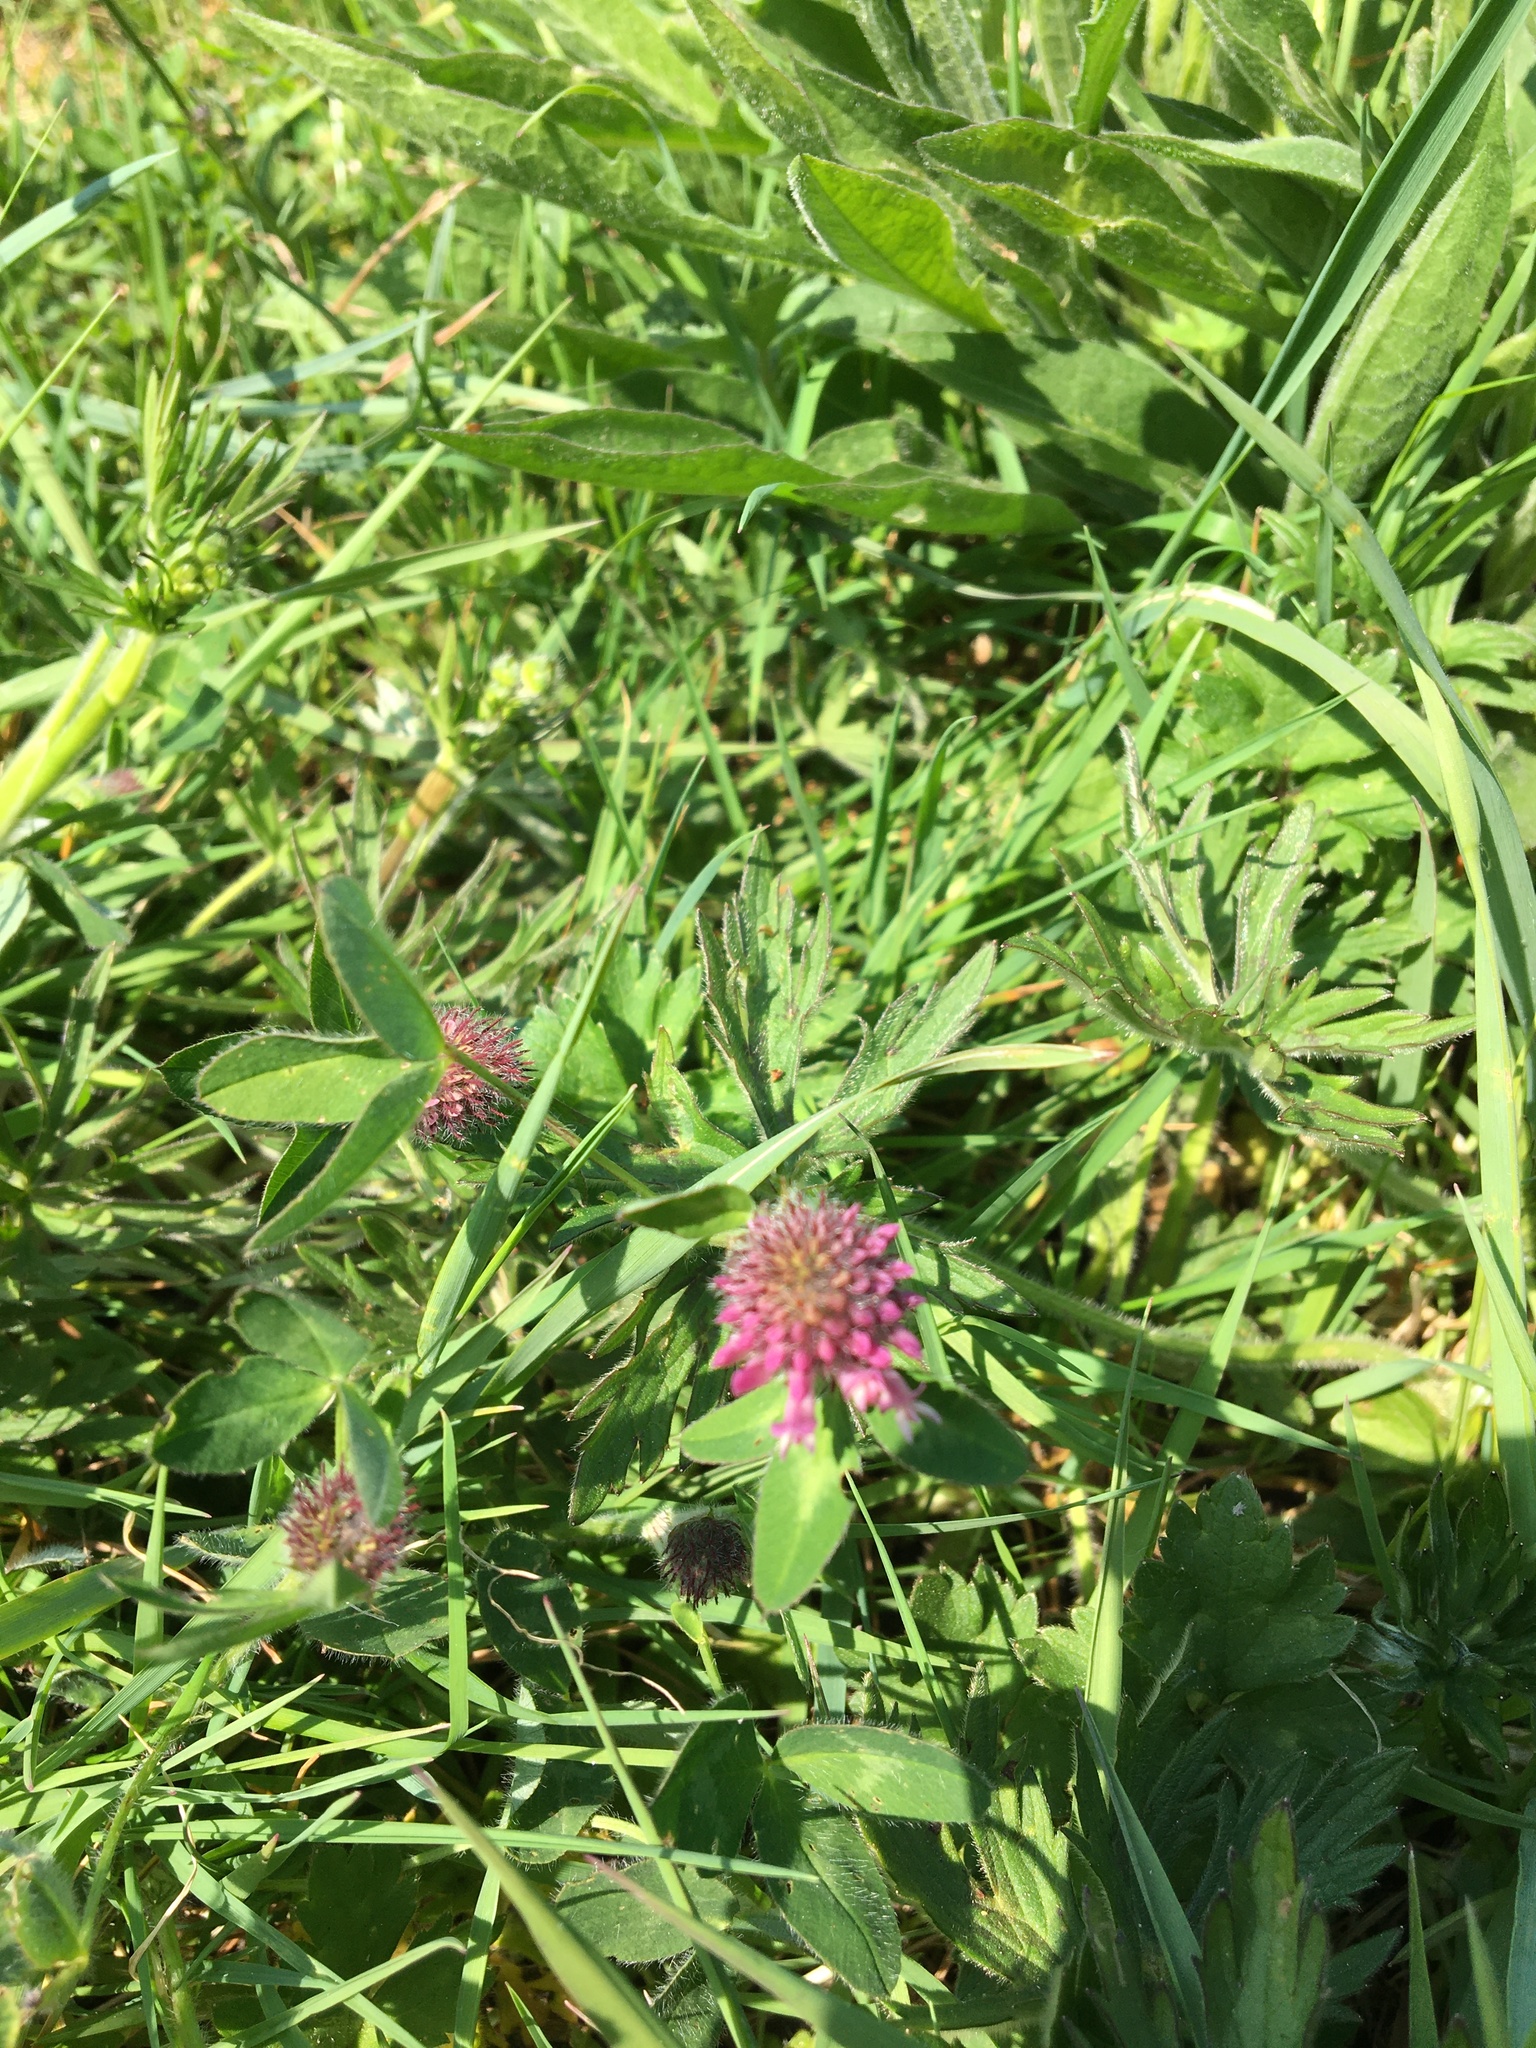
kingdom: Plantae
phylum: Tracheophyta
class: Magnoliopsida
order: Fabales
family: Fabaceae
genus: Trifolium
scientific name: Trifolium pratense
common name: Red clover
